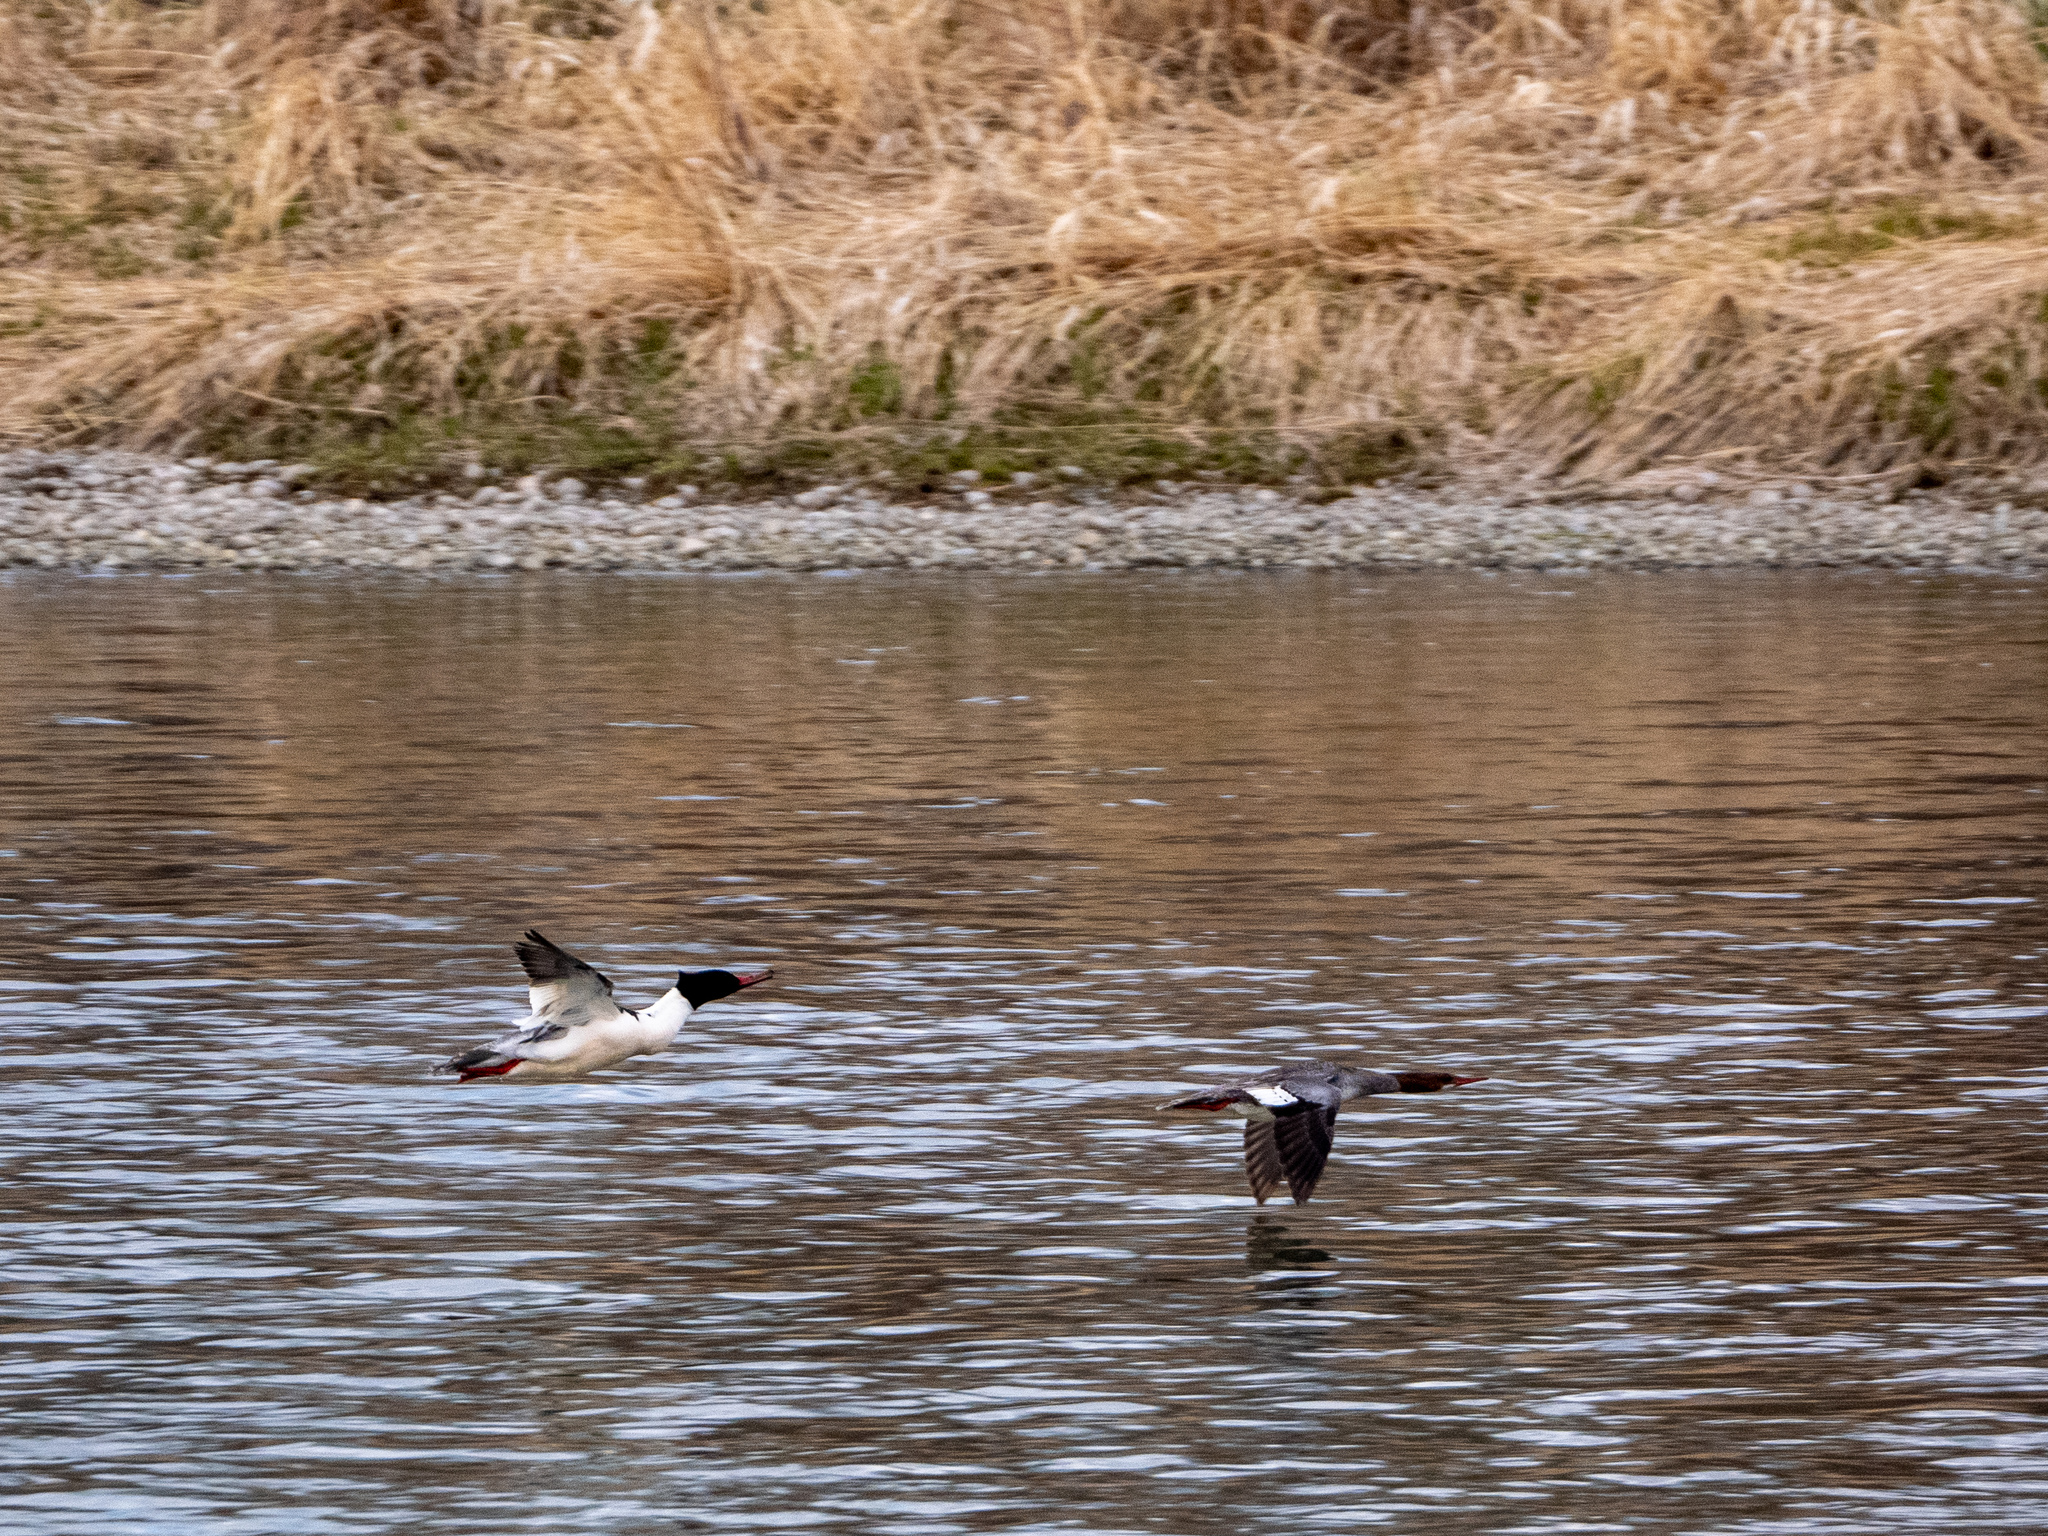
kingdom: Animalia
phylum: Chordata
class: Aves
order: Anseriformes
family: Anatidae
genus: Mergus
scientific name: Mergus merganser
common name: Common merganser
